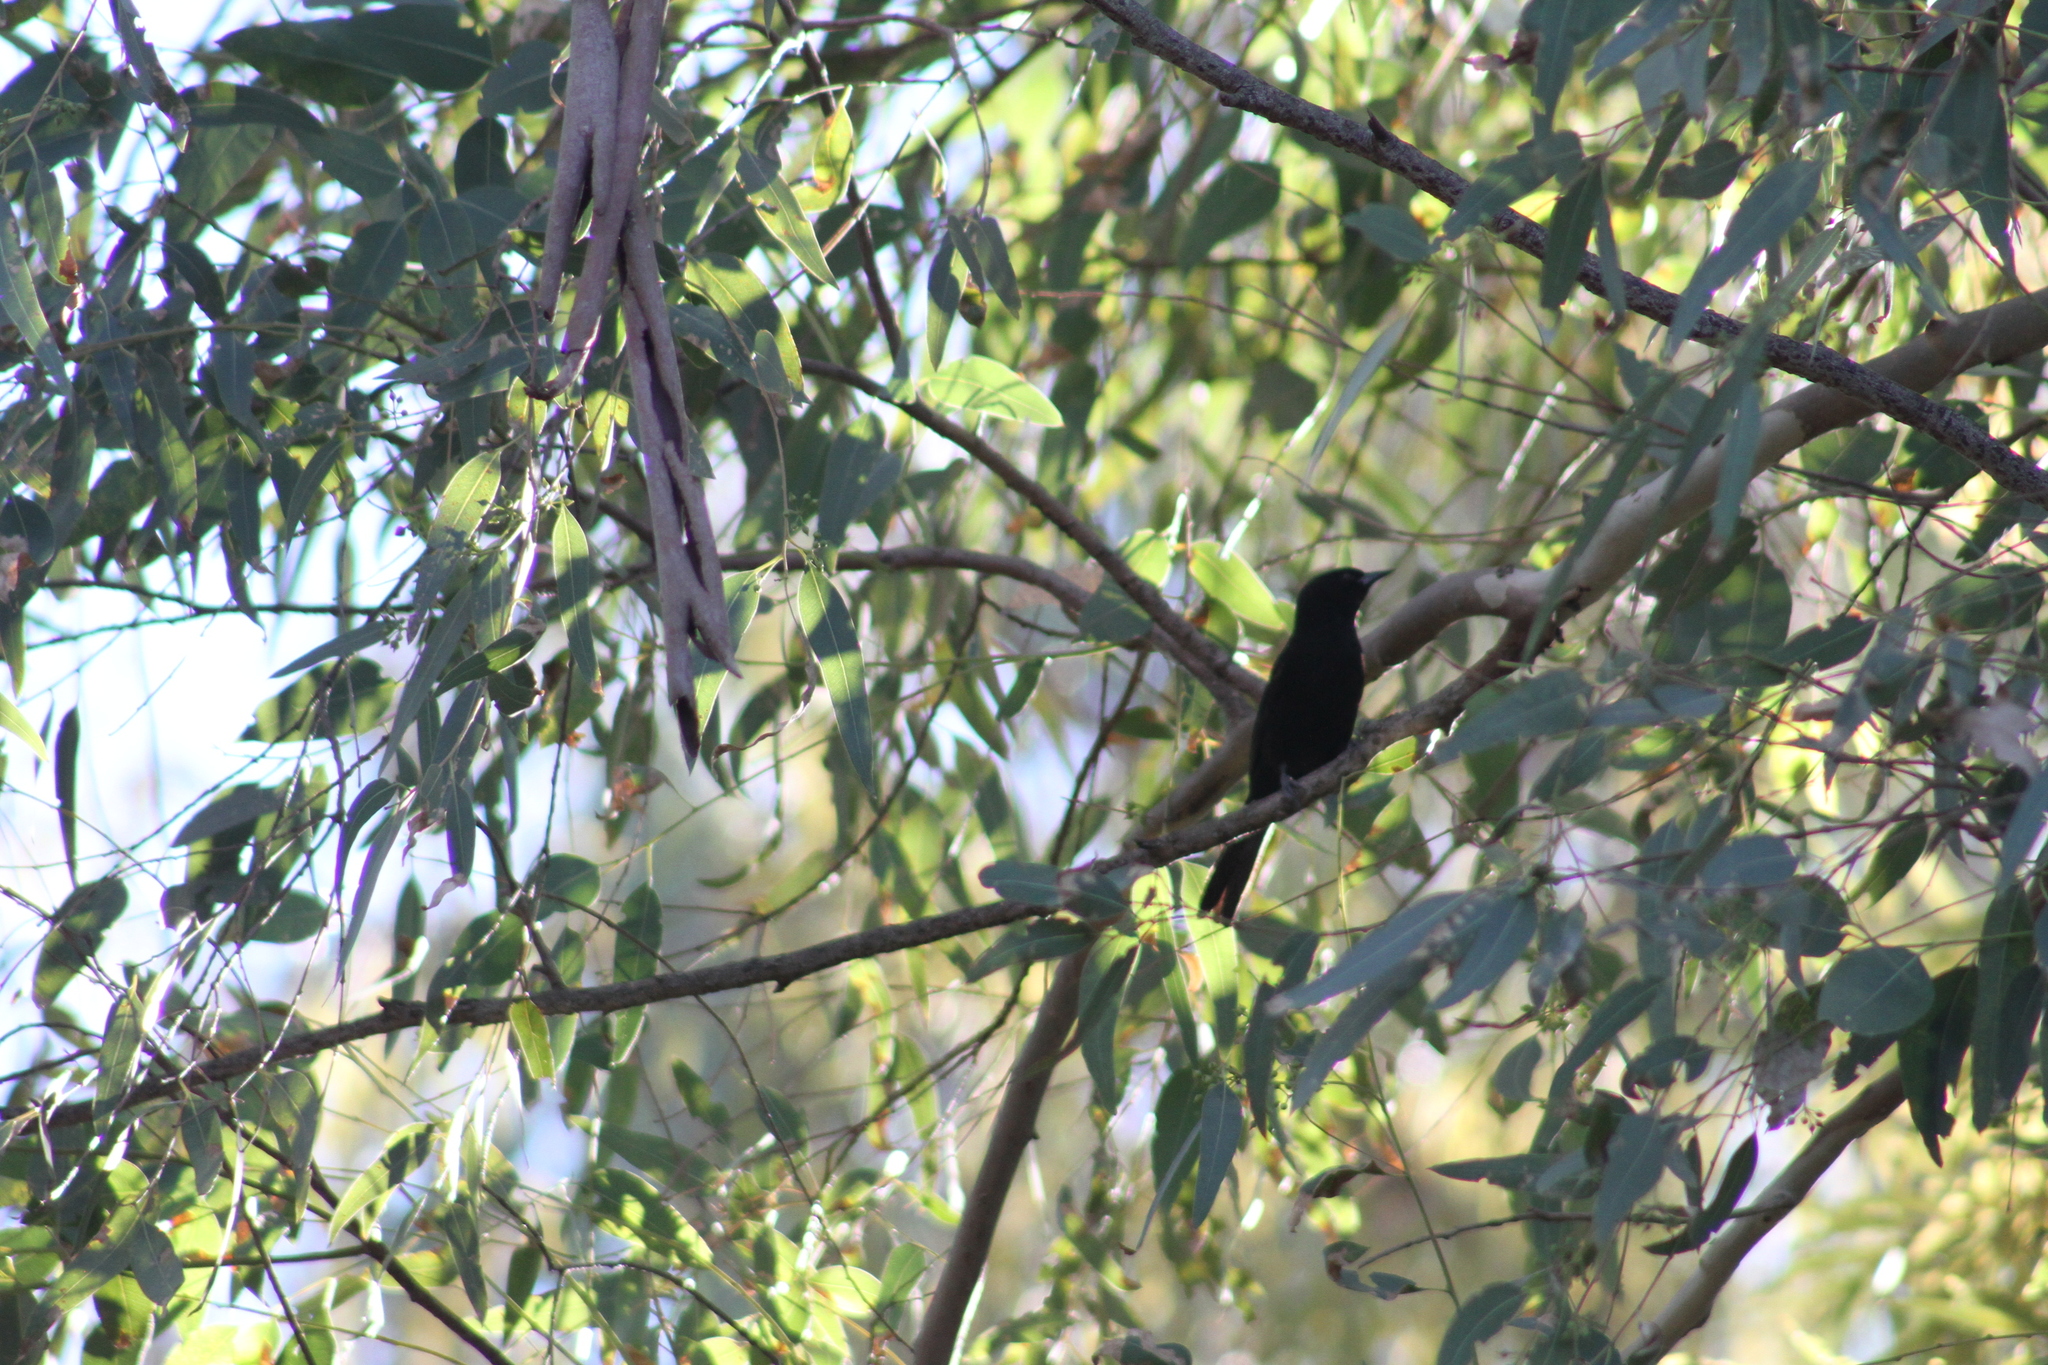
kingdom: Animalia
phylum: Chordata
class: Aves
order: Passeriformes
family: Icteridae
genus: Icterus
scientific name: Icterus cayanensis
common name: Epaulet oriole
